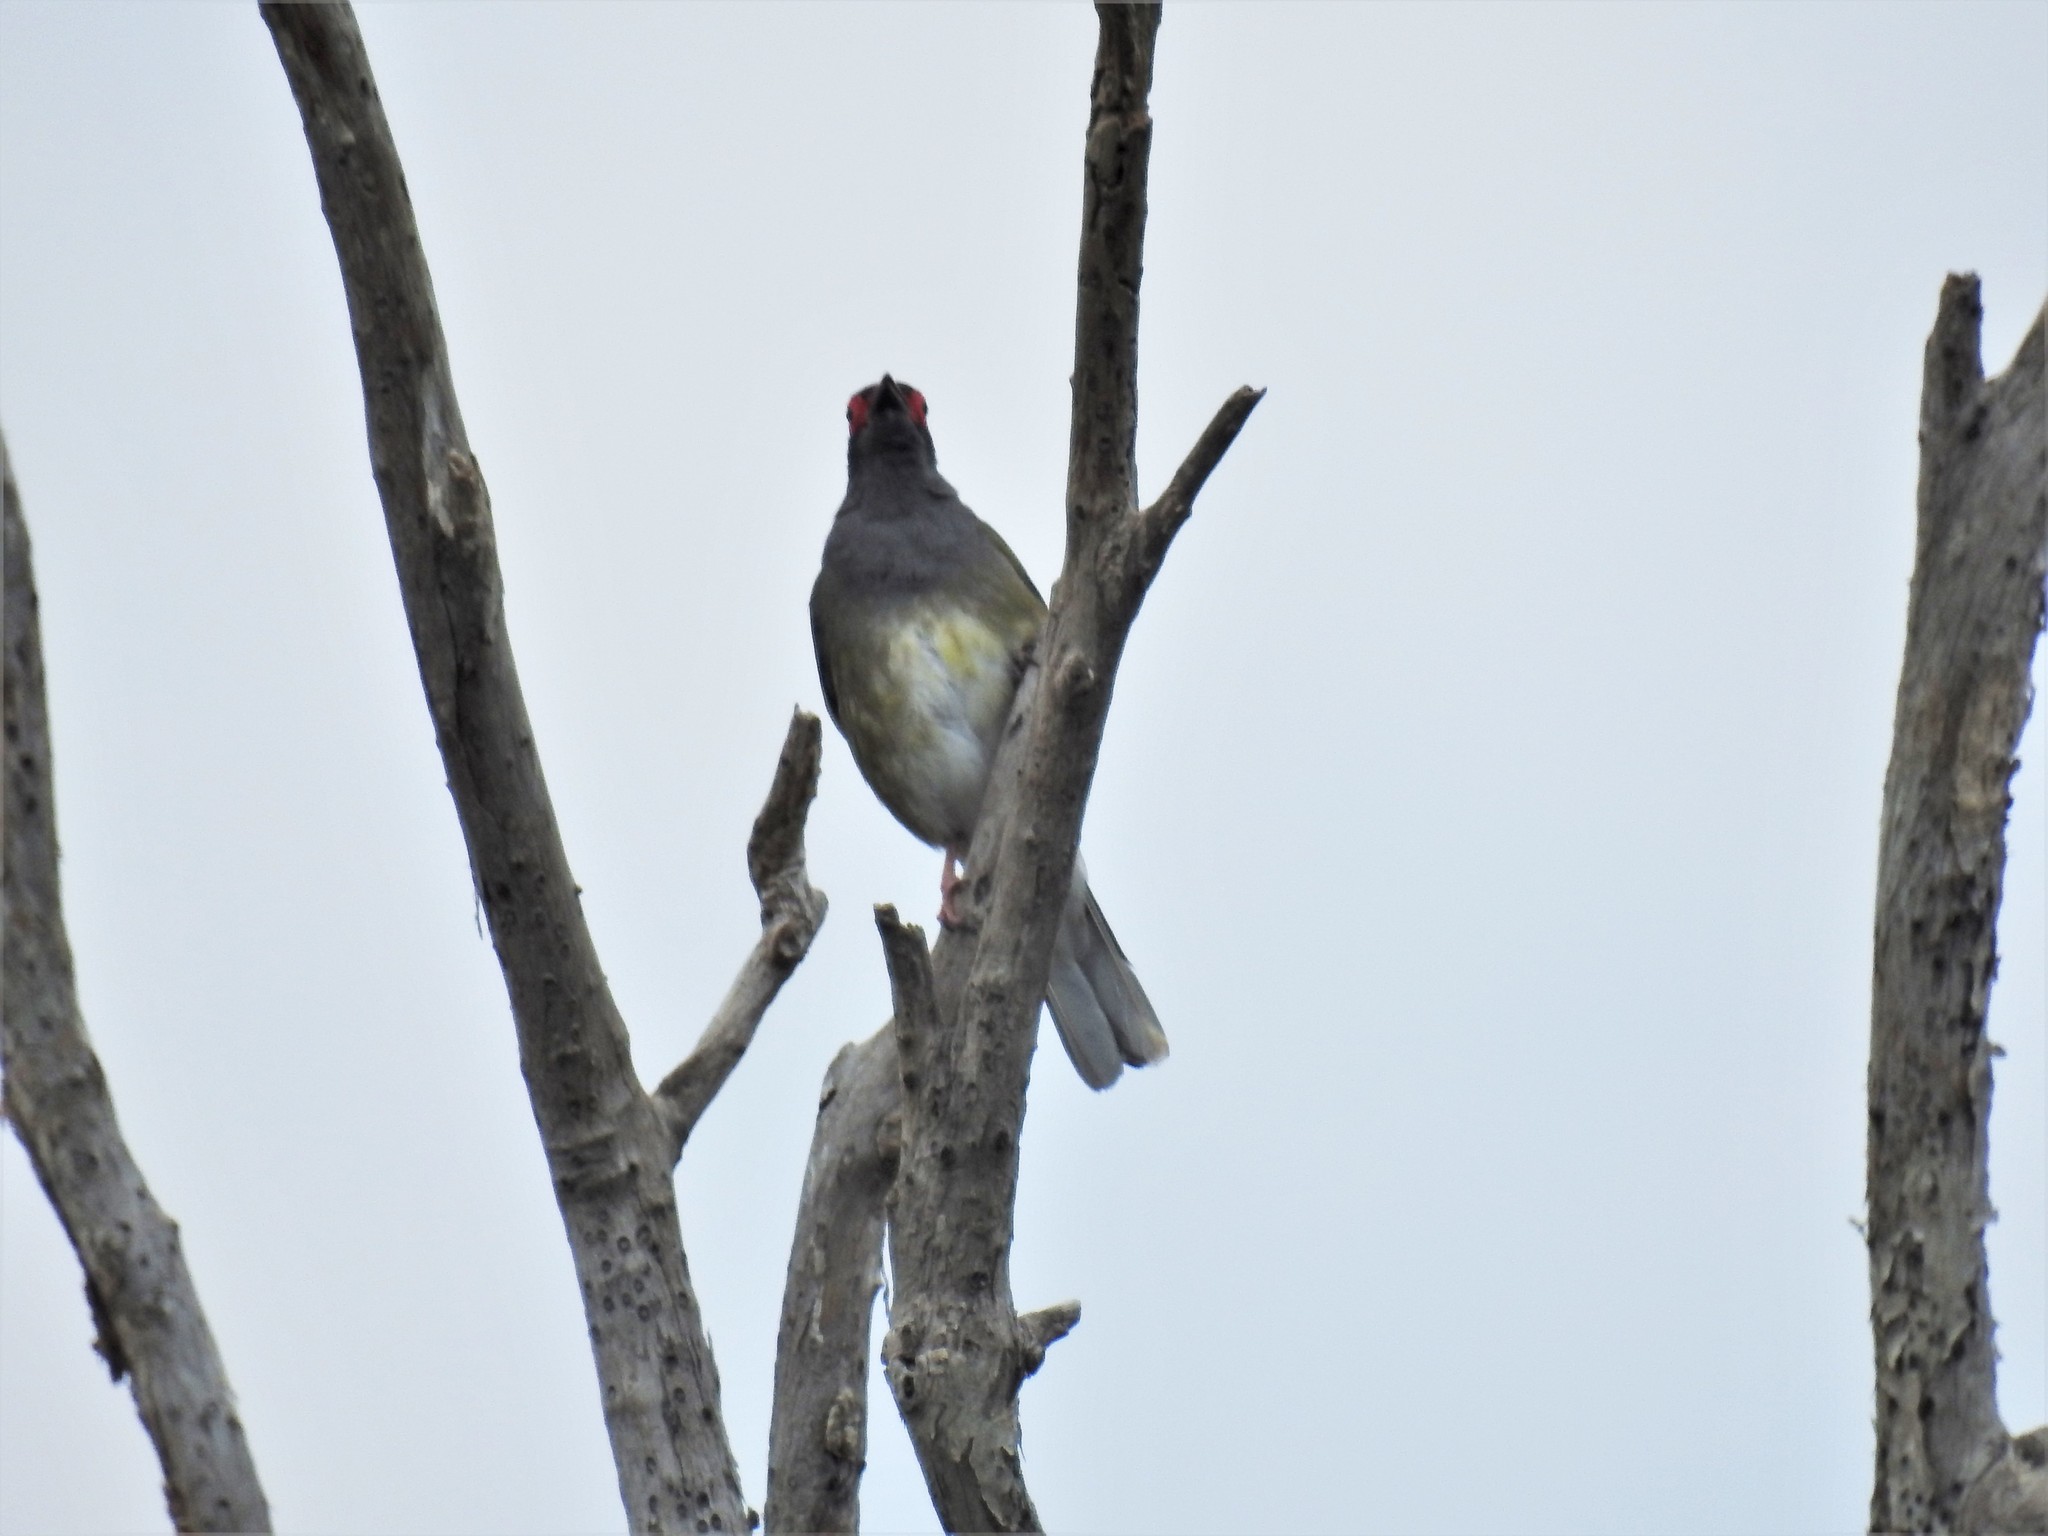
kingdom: Animalia
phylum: Chordata
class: Aves
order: Passeriformes
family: Oriolidae
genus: Sphecotheres
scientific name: Sphecotheres vieilloti
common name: Australasian figbird
